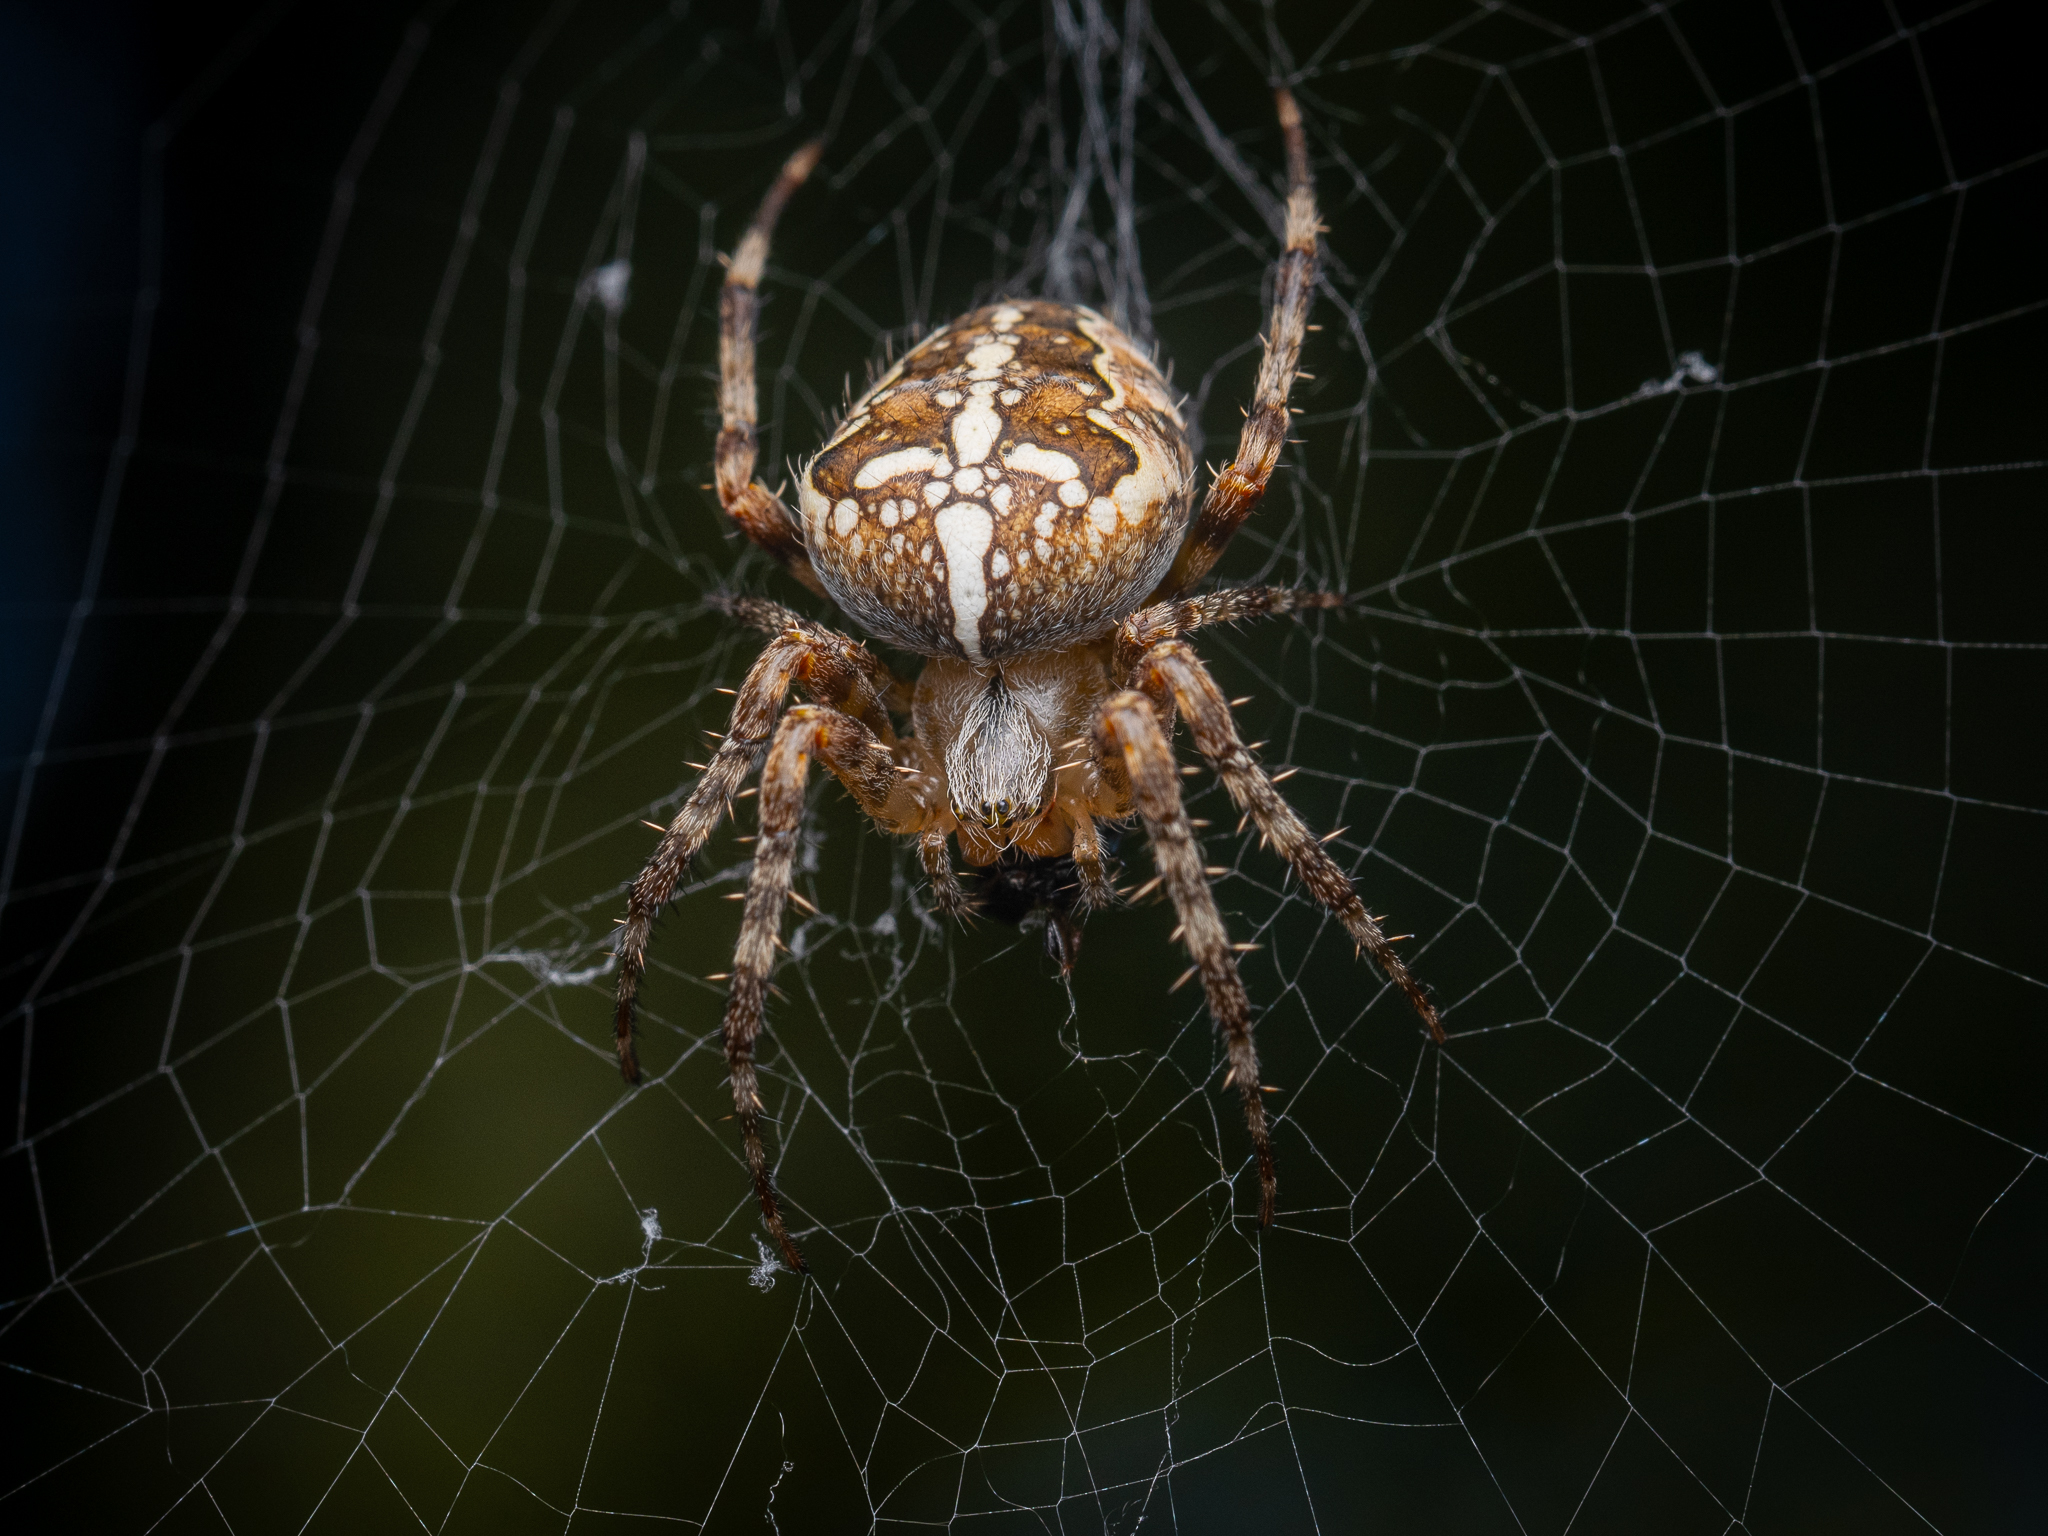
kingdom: Animalia
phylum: Arthropoda
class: Arachnida
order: Araneae
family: Araneidae
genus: Araneus
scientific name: Araneus diadematus
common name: Cross orbweaver
